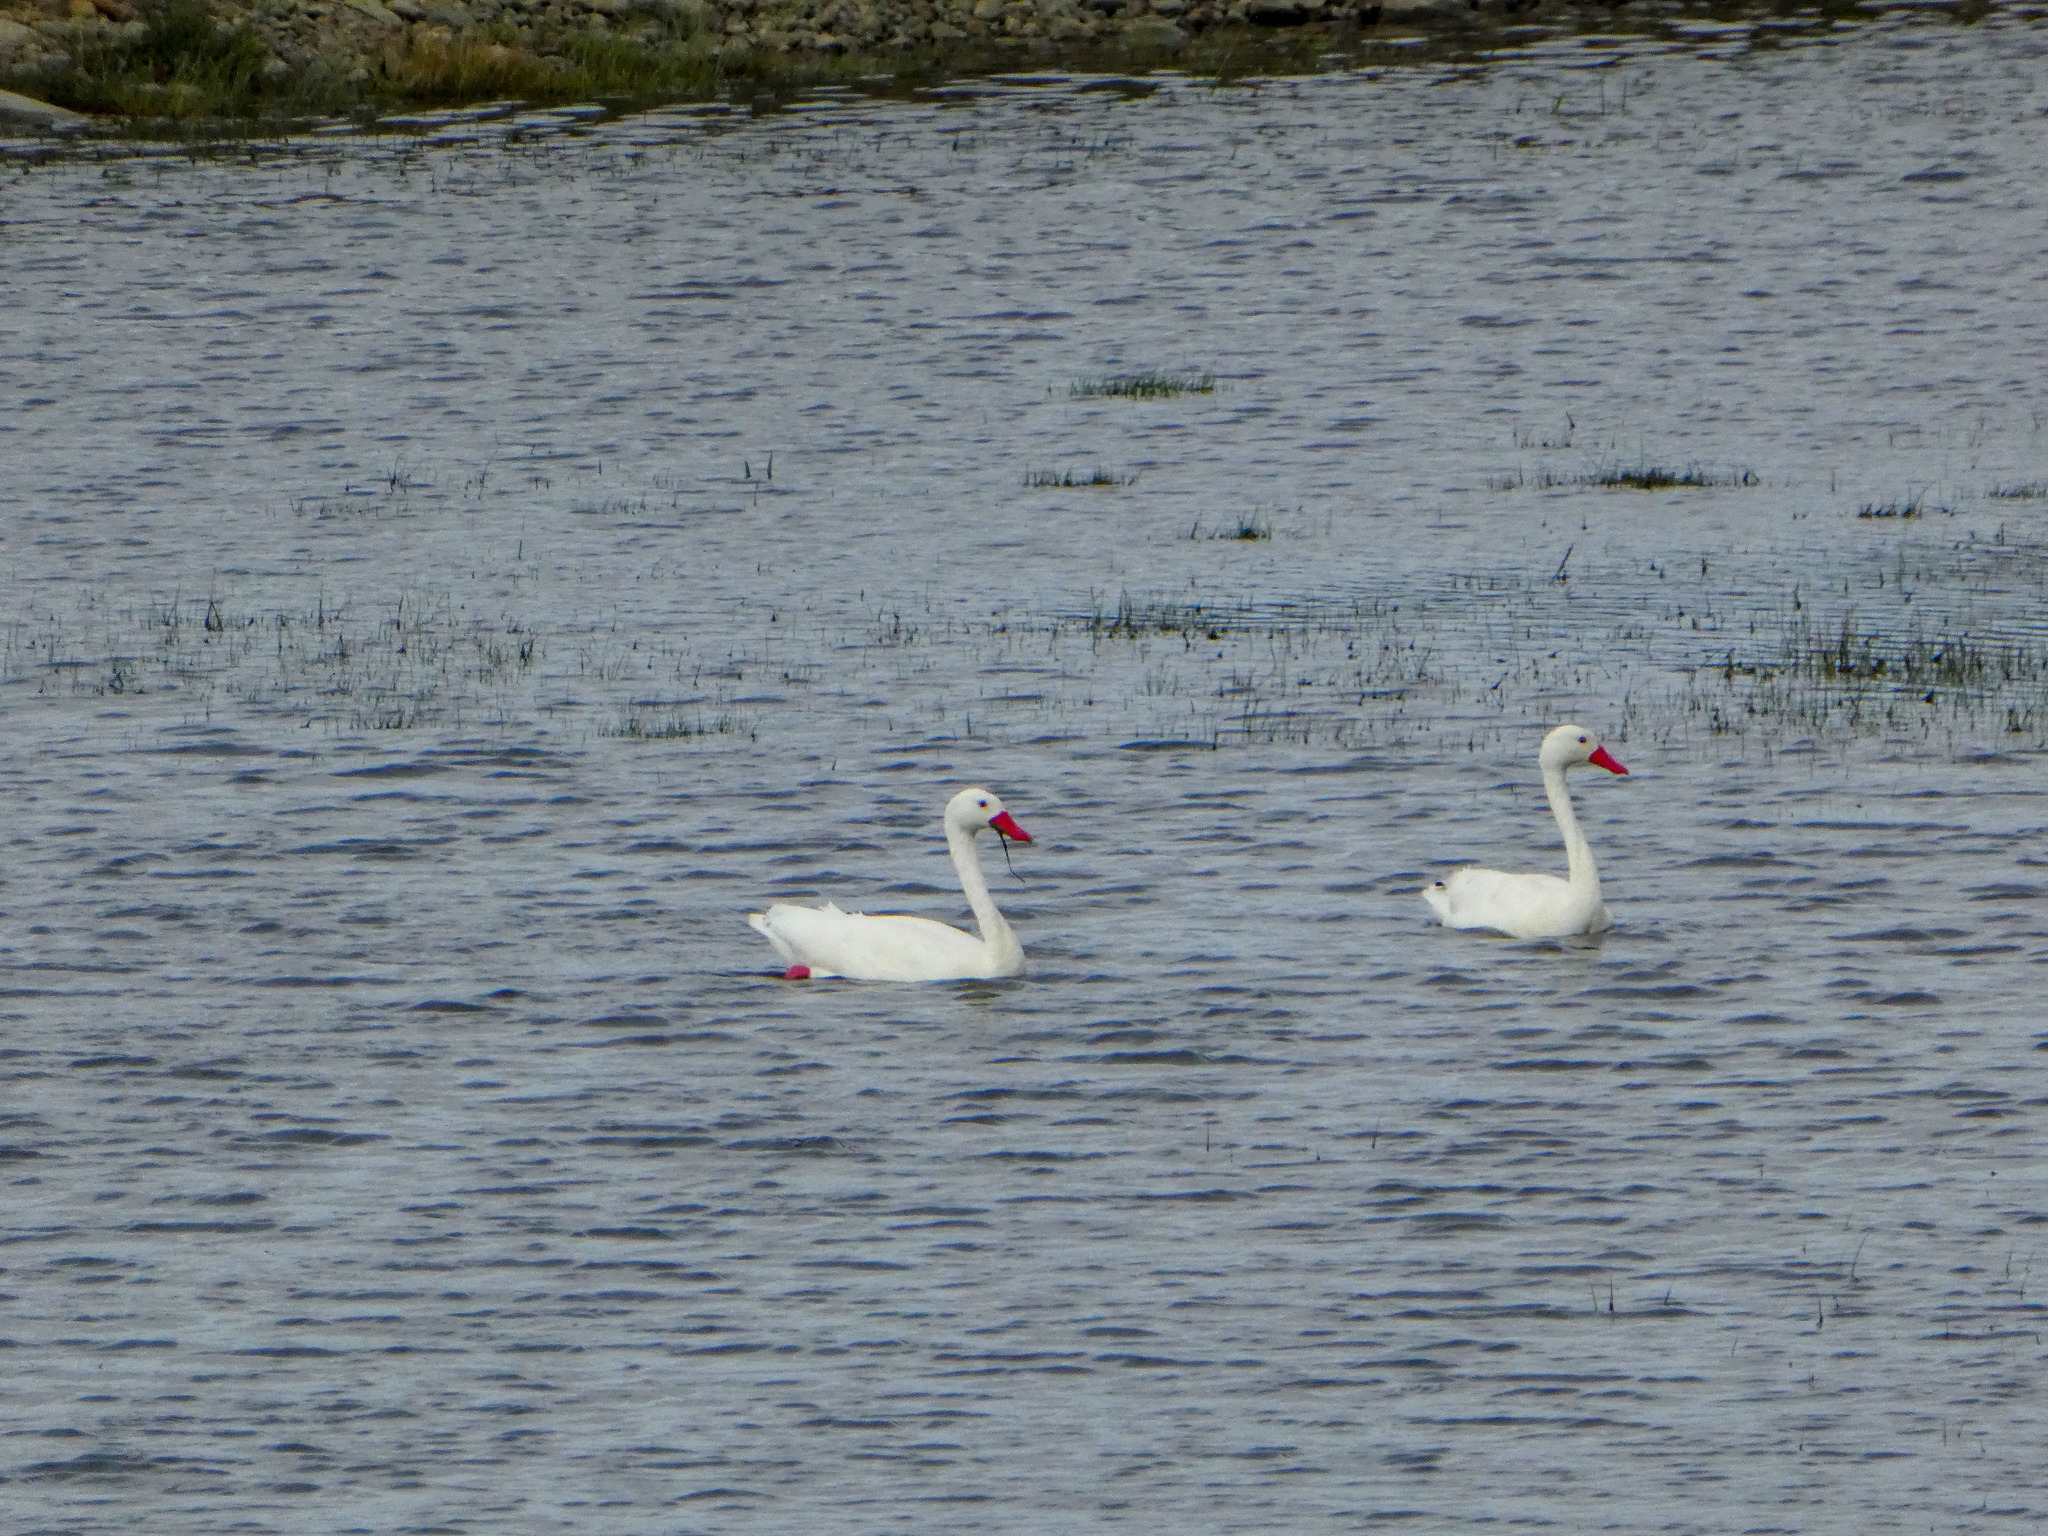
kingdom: Animalia
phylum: Chordata
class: Aves
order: Anseriformes
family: Anatidae
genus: Coscoroba
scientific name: Coscoroba coscoroba
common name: Coscoroba swan
